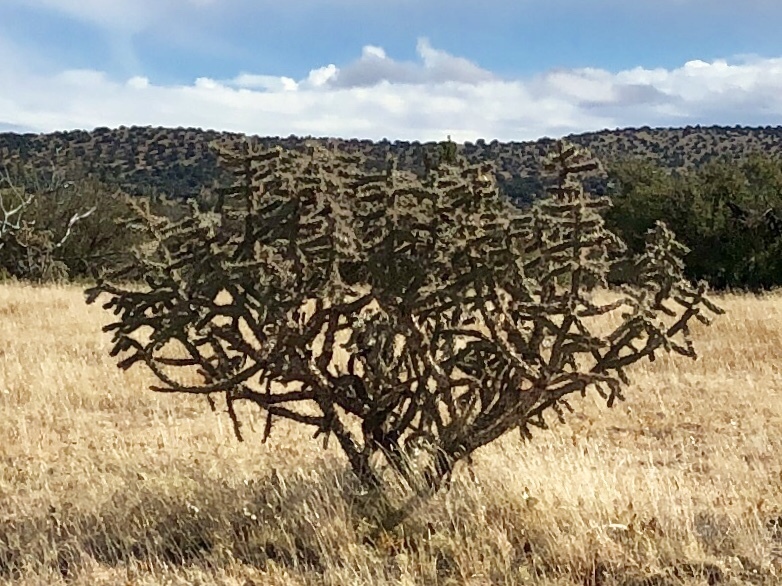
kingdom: Plantae
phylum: Tracheophyta
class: Magnoliopsida
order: Caryophyllales
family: Cactaceae
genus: Cylindropuntia
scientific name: Cylindropuntia imbricata
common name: Candelabrum cactus
